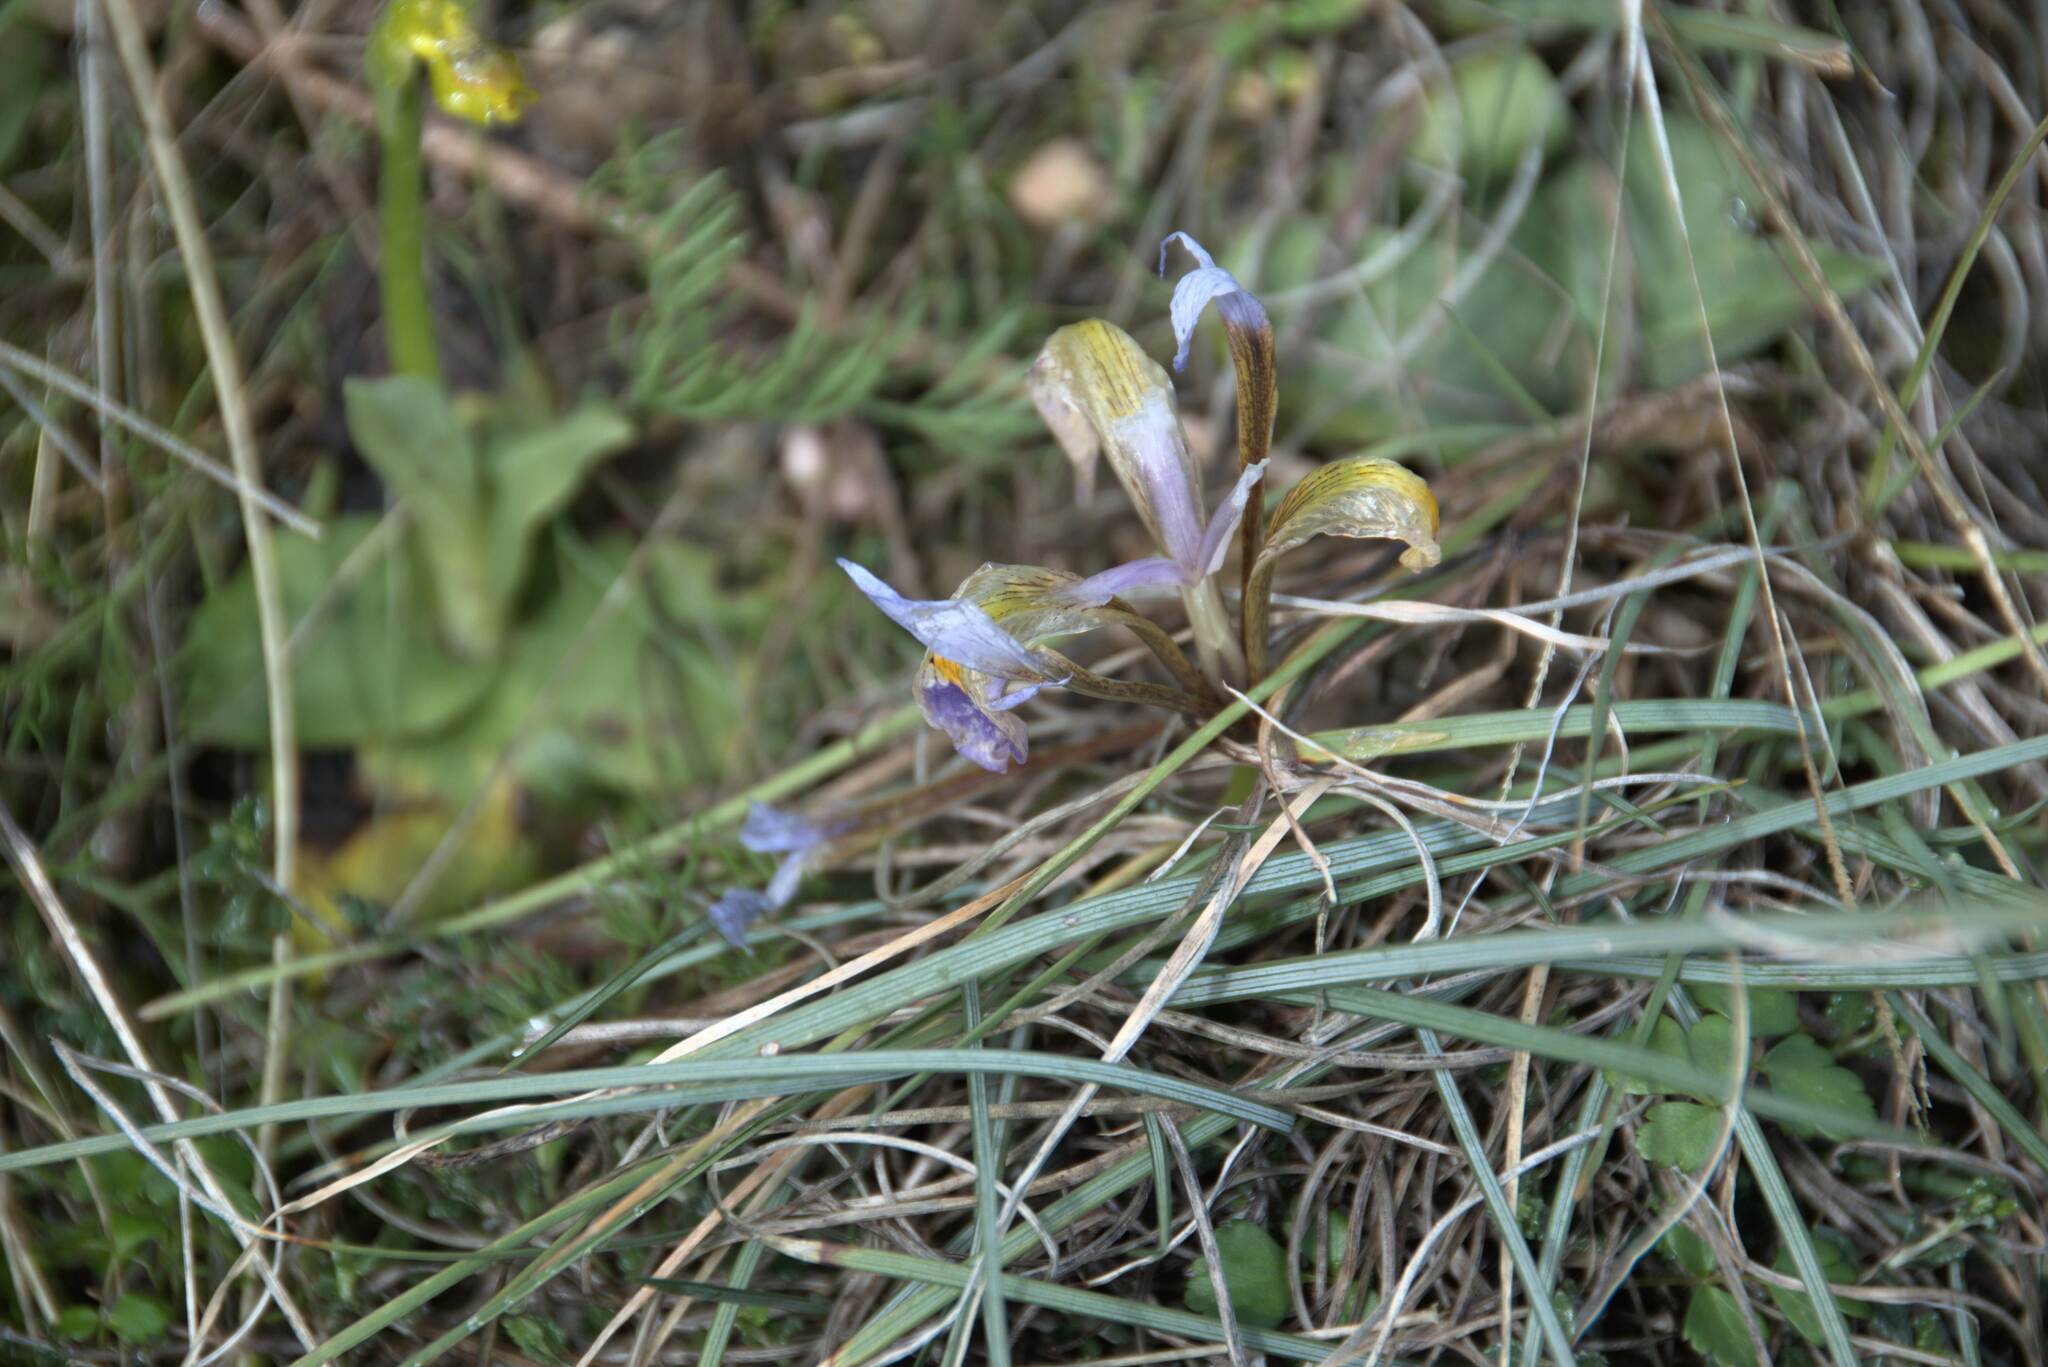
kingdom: Plantae
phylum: Tracheophyta
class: Liliopsida
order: Asparagales
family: Iridaceae
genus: Iris
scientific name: Iris unguicularis
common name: Algerian iris
